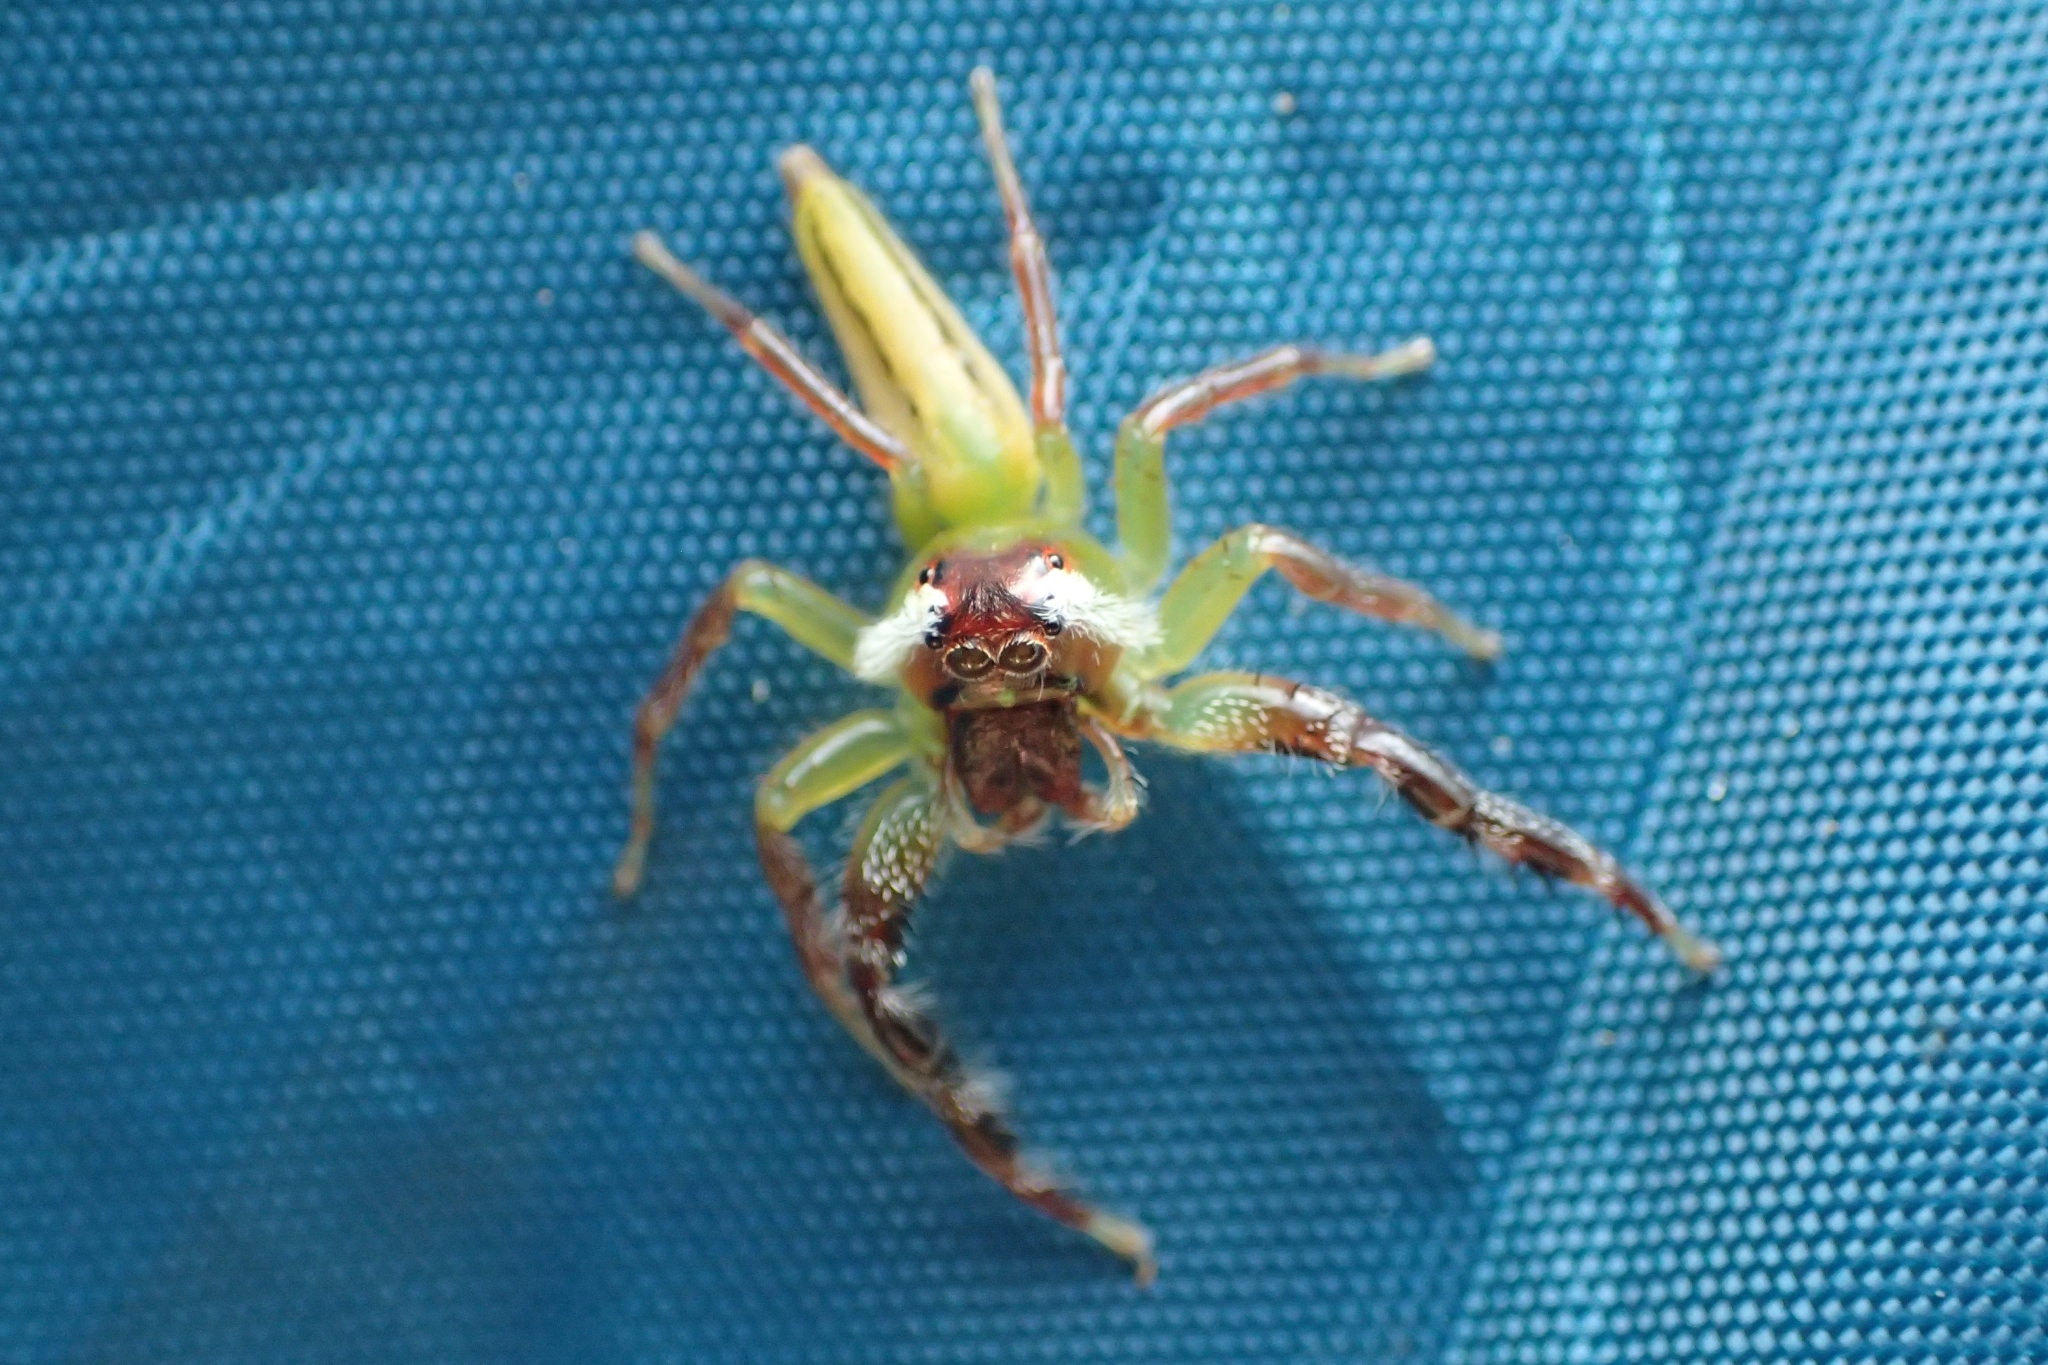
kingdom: Animalia
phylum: Arthropoda
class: Arachnida
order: Araneae
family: Salticidae
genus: Mopsus
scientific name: Mopsus mormon
